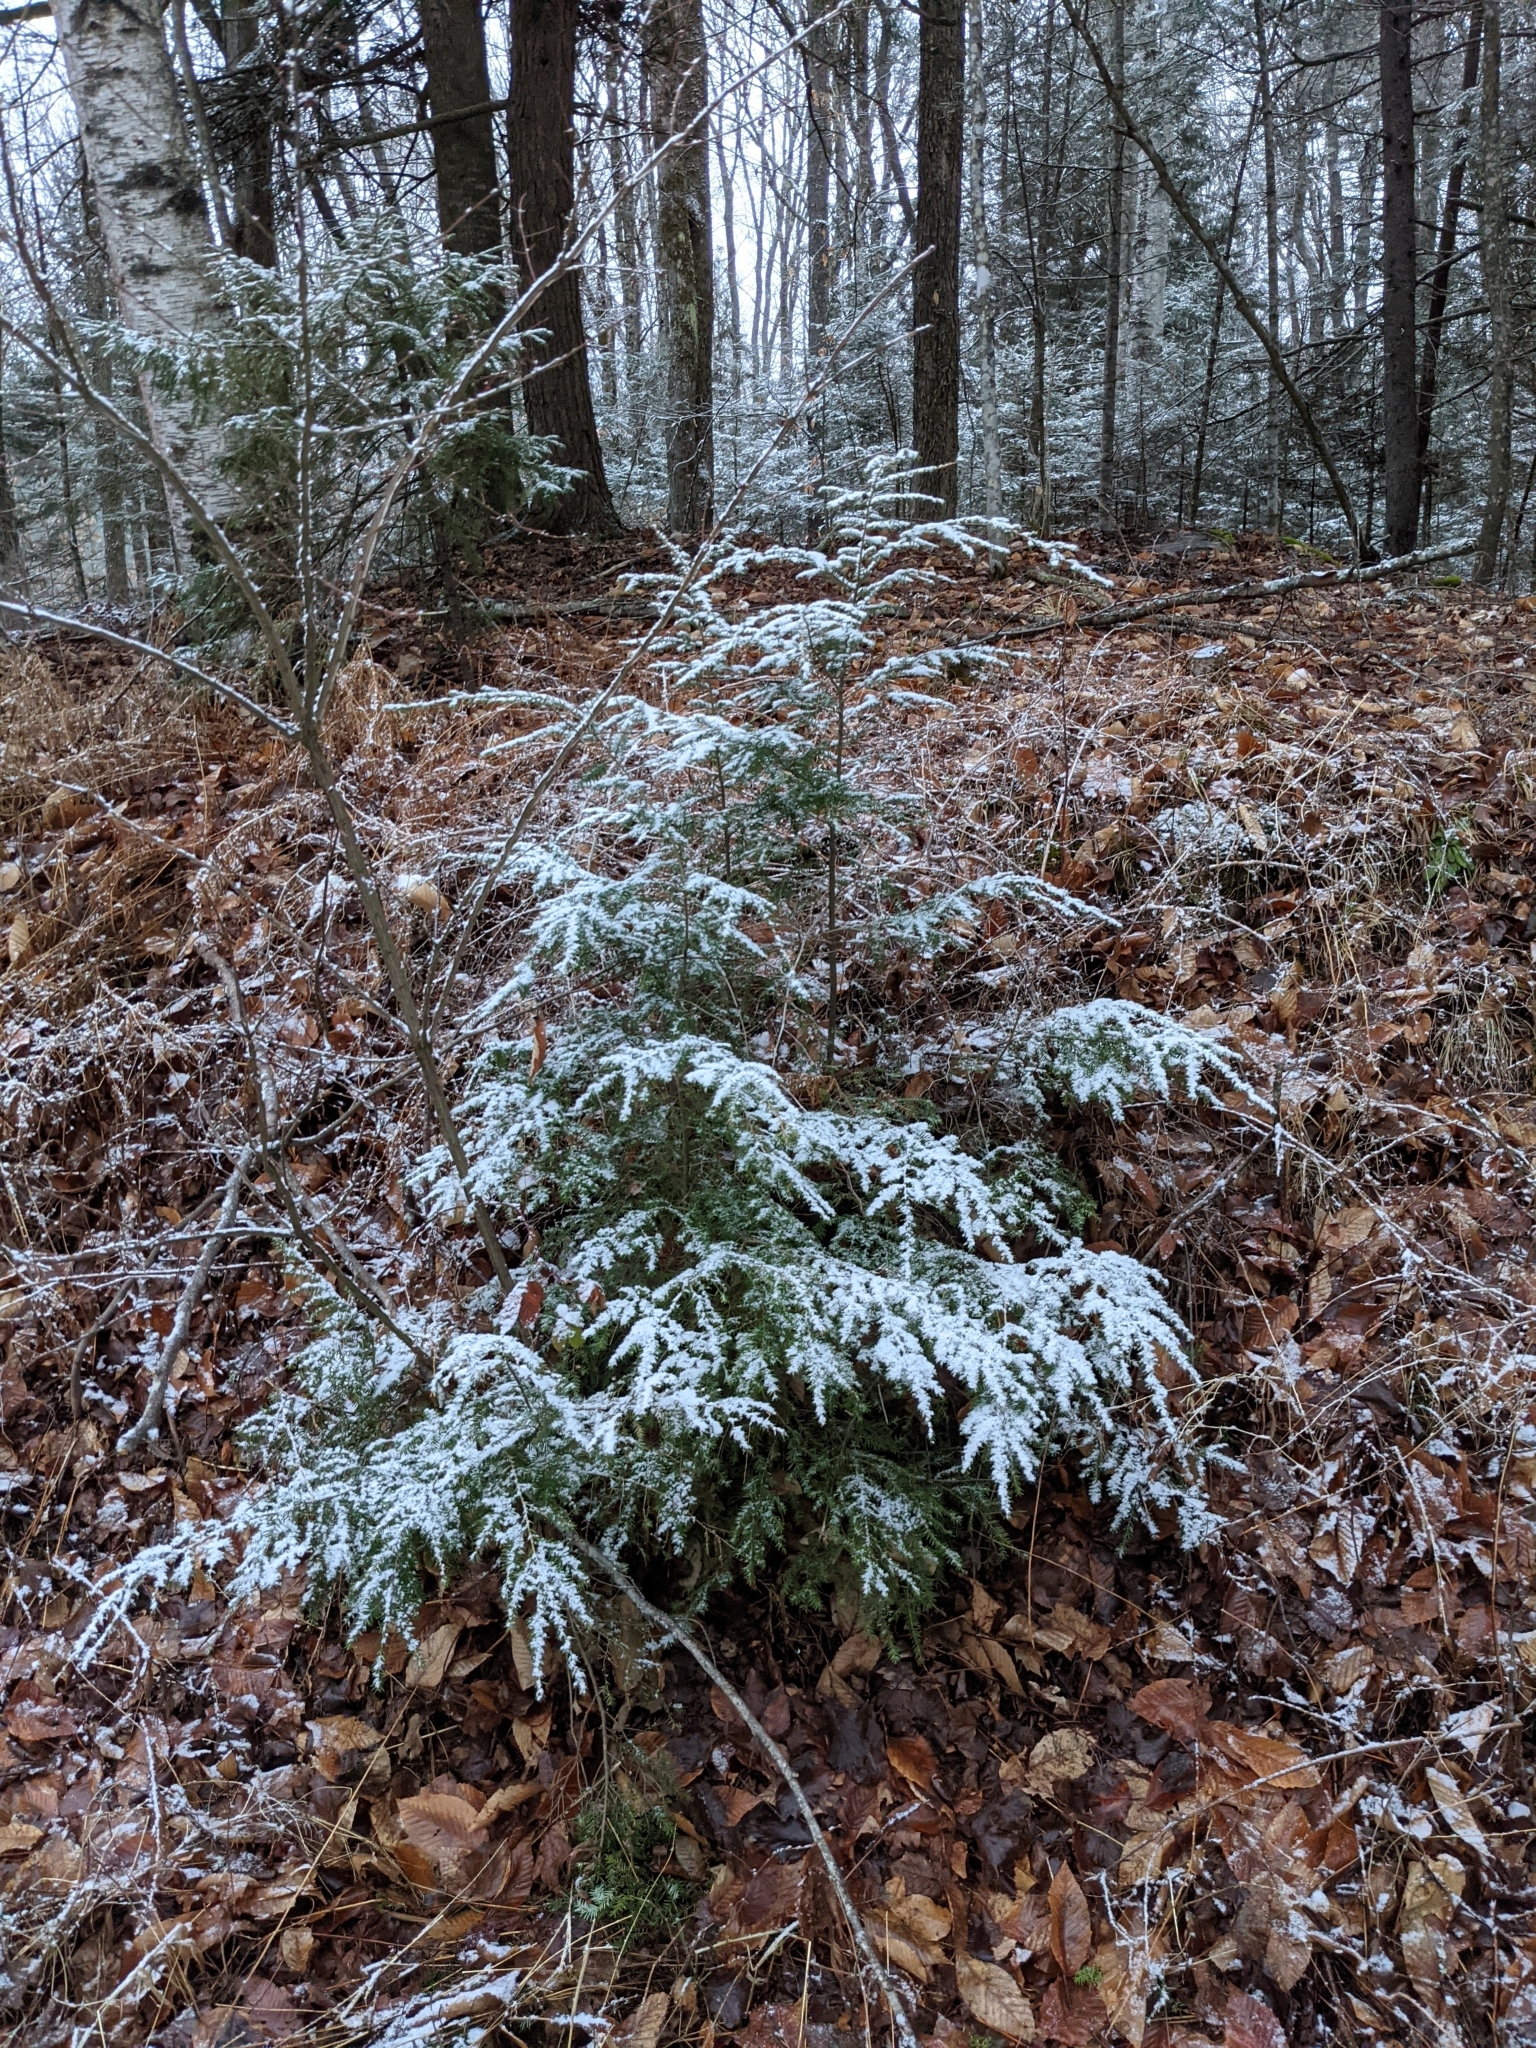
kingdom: Plantae
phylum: Tracheophyta
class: Pinopsida
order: Pinales
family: Pinaceae
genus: Tsuga
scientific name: Tsuga canadensis
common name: Eastern hemlock
